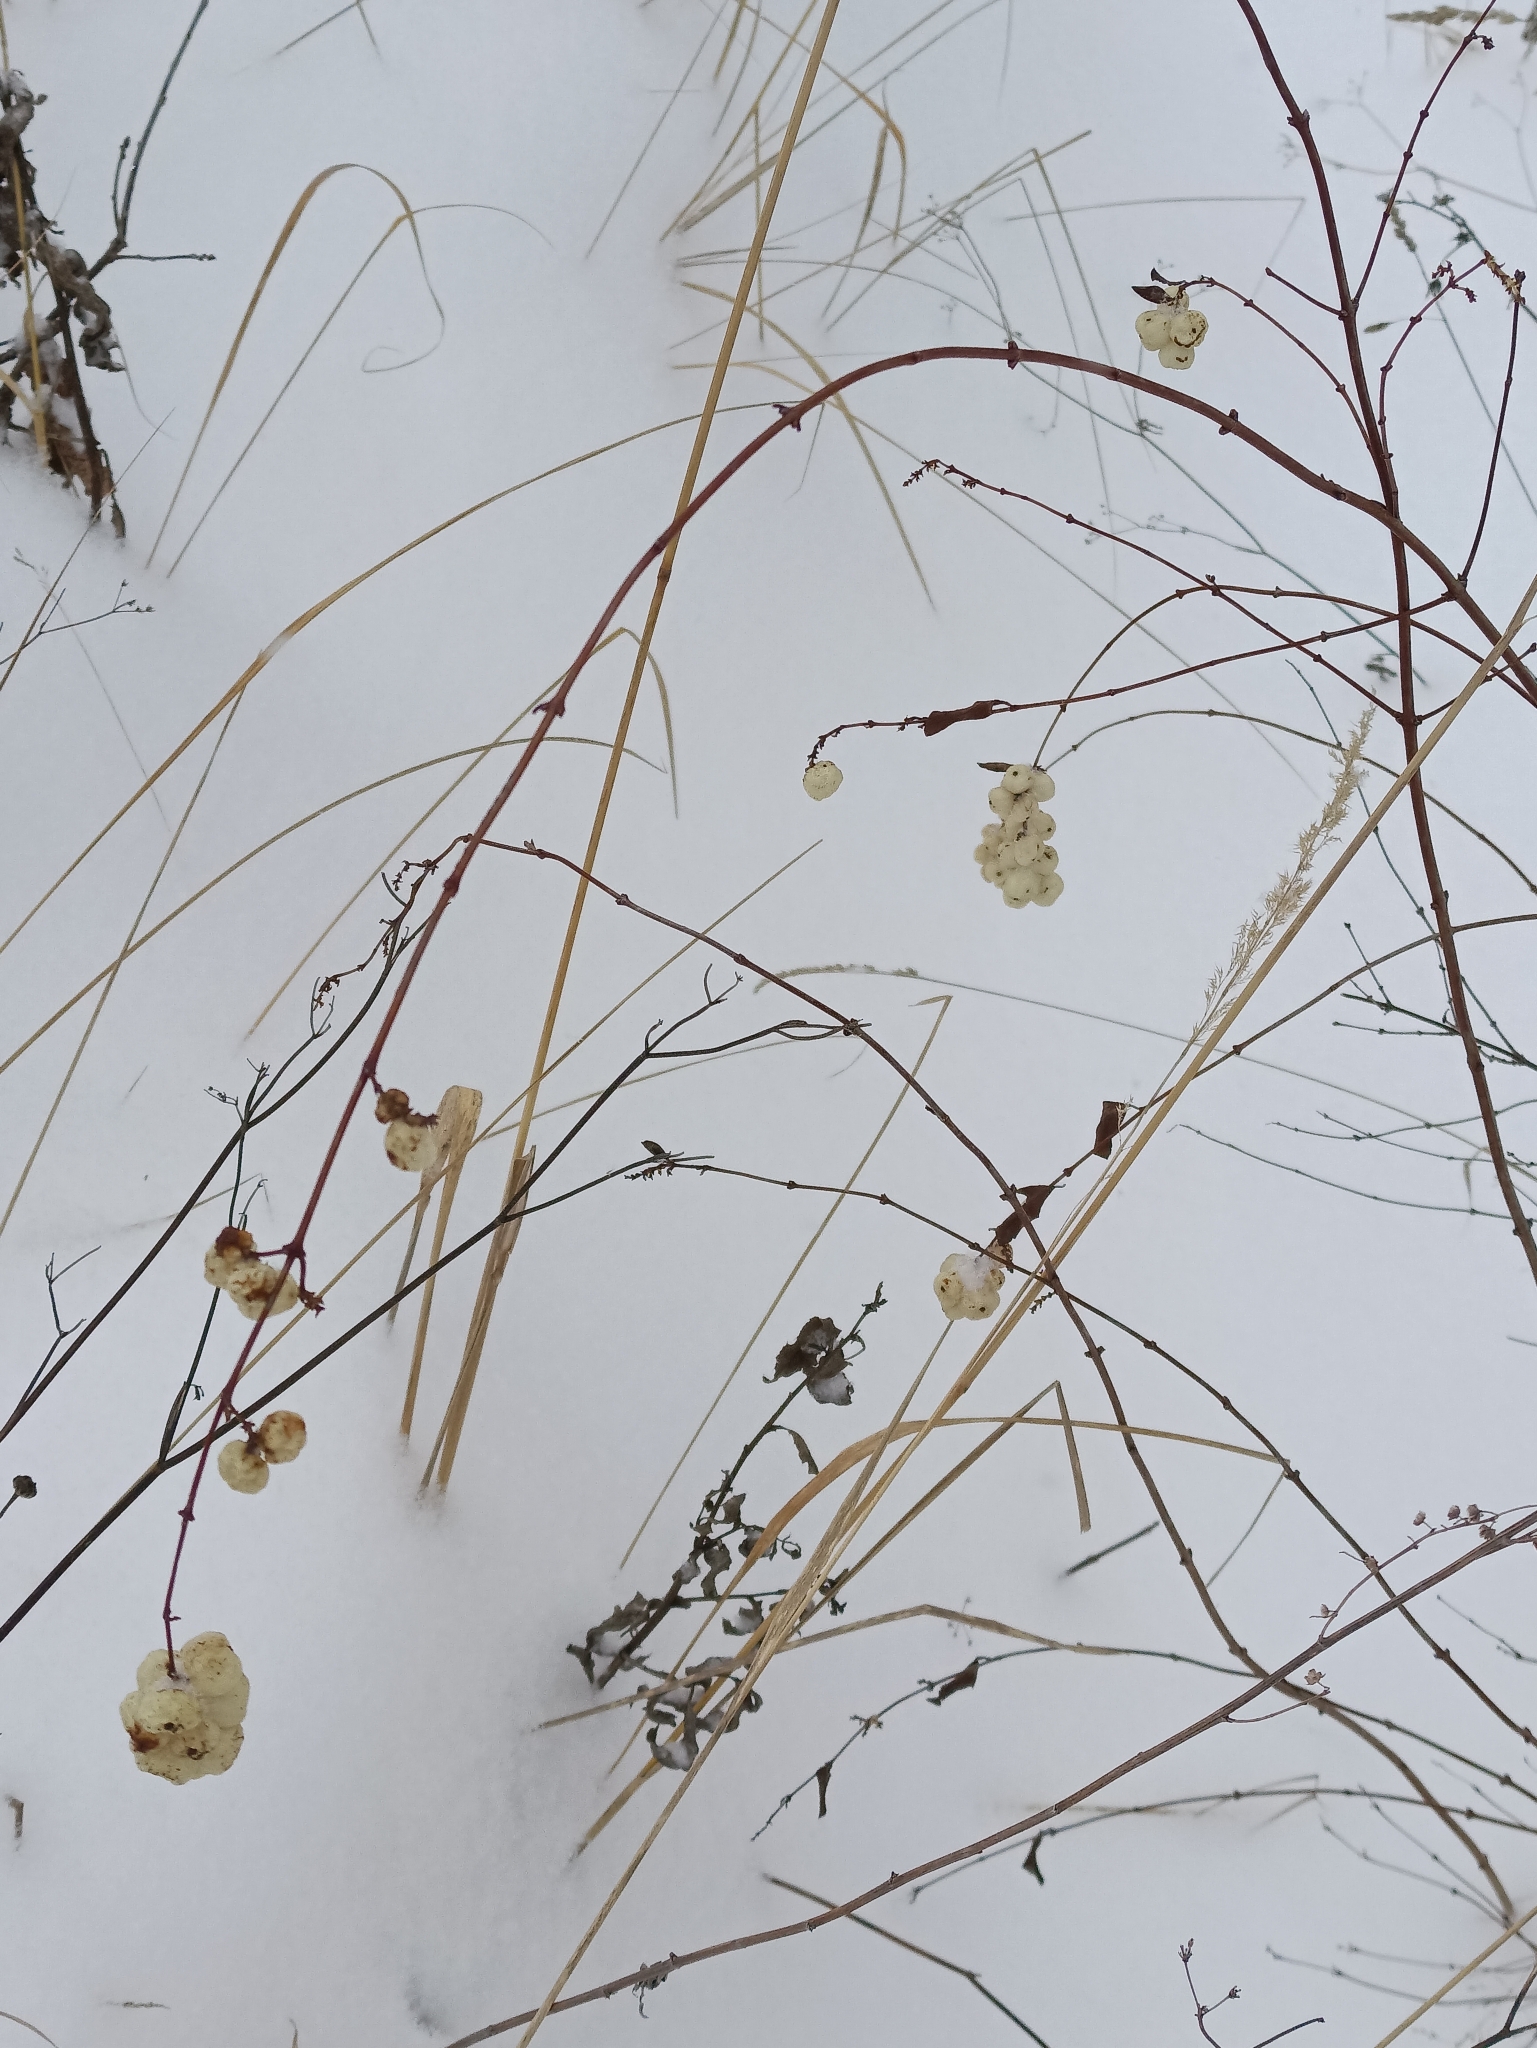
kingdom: Plantae
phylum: Tracheophyta
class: Magnoliopsida
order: Dipsacales
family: Caprifoliaceae
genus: Symphoricarpos
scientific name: Symphoricarpos albus
